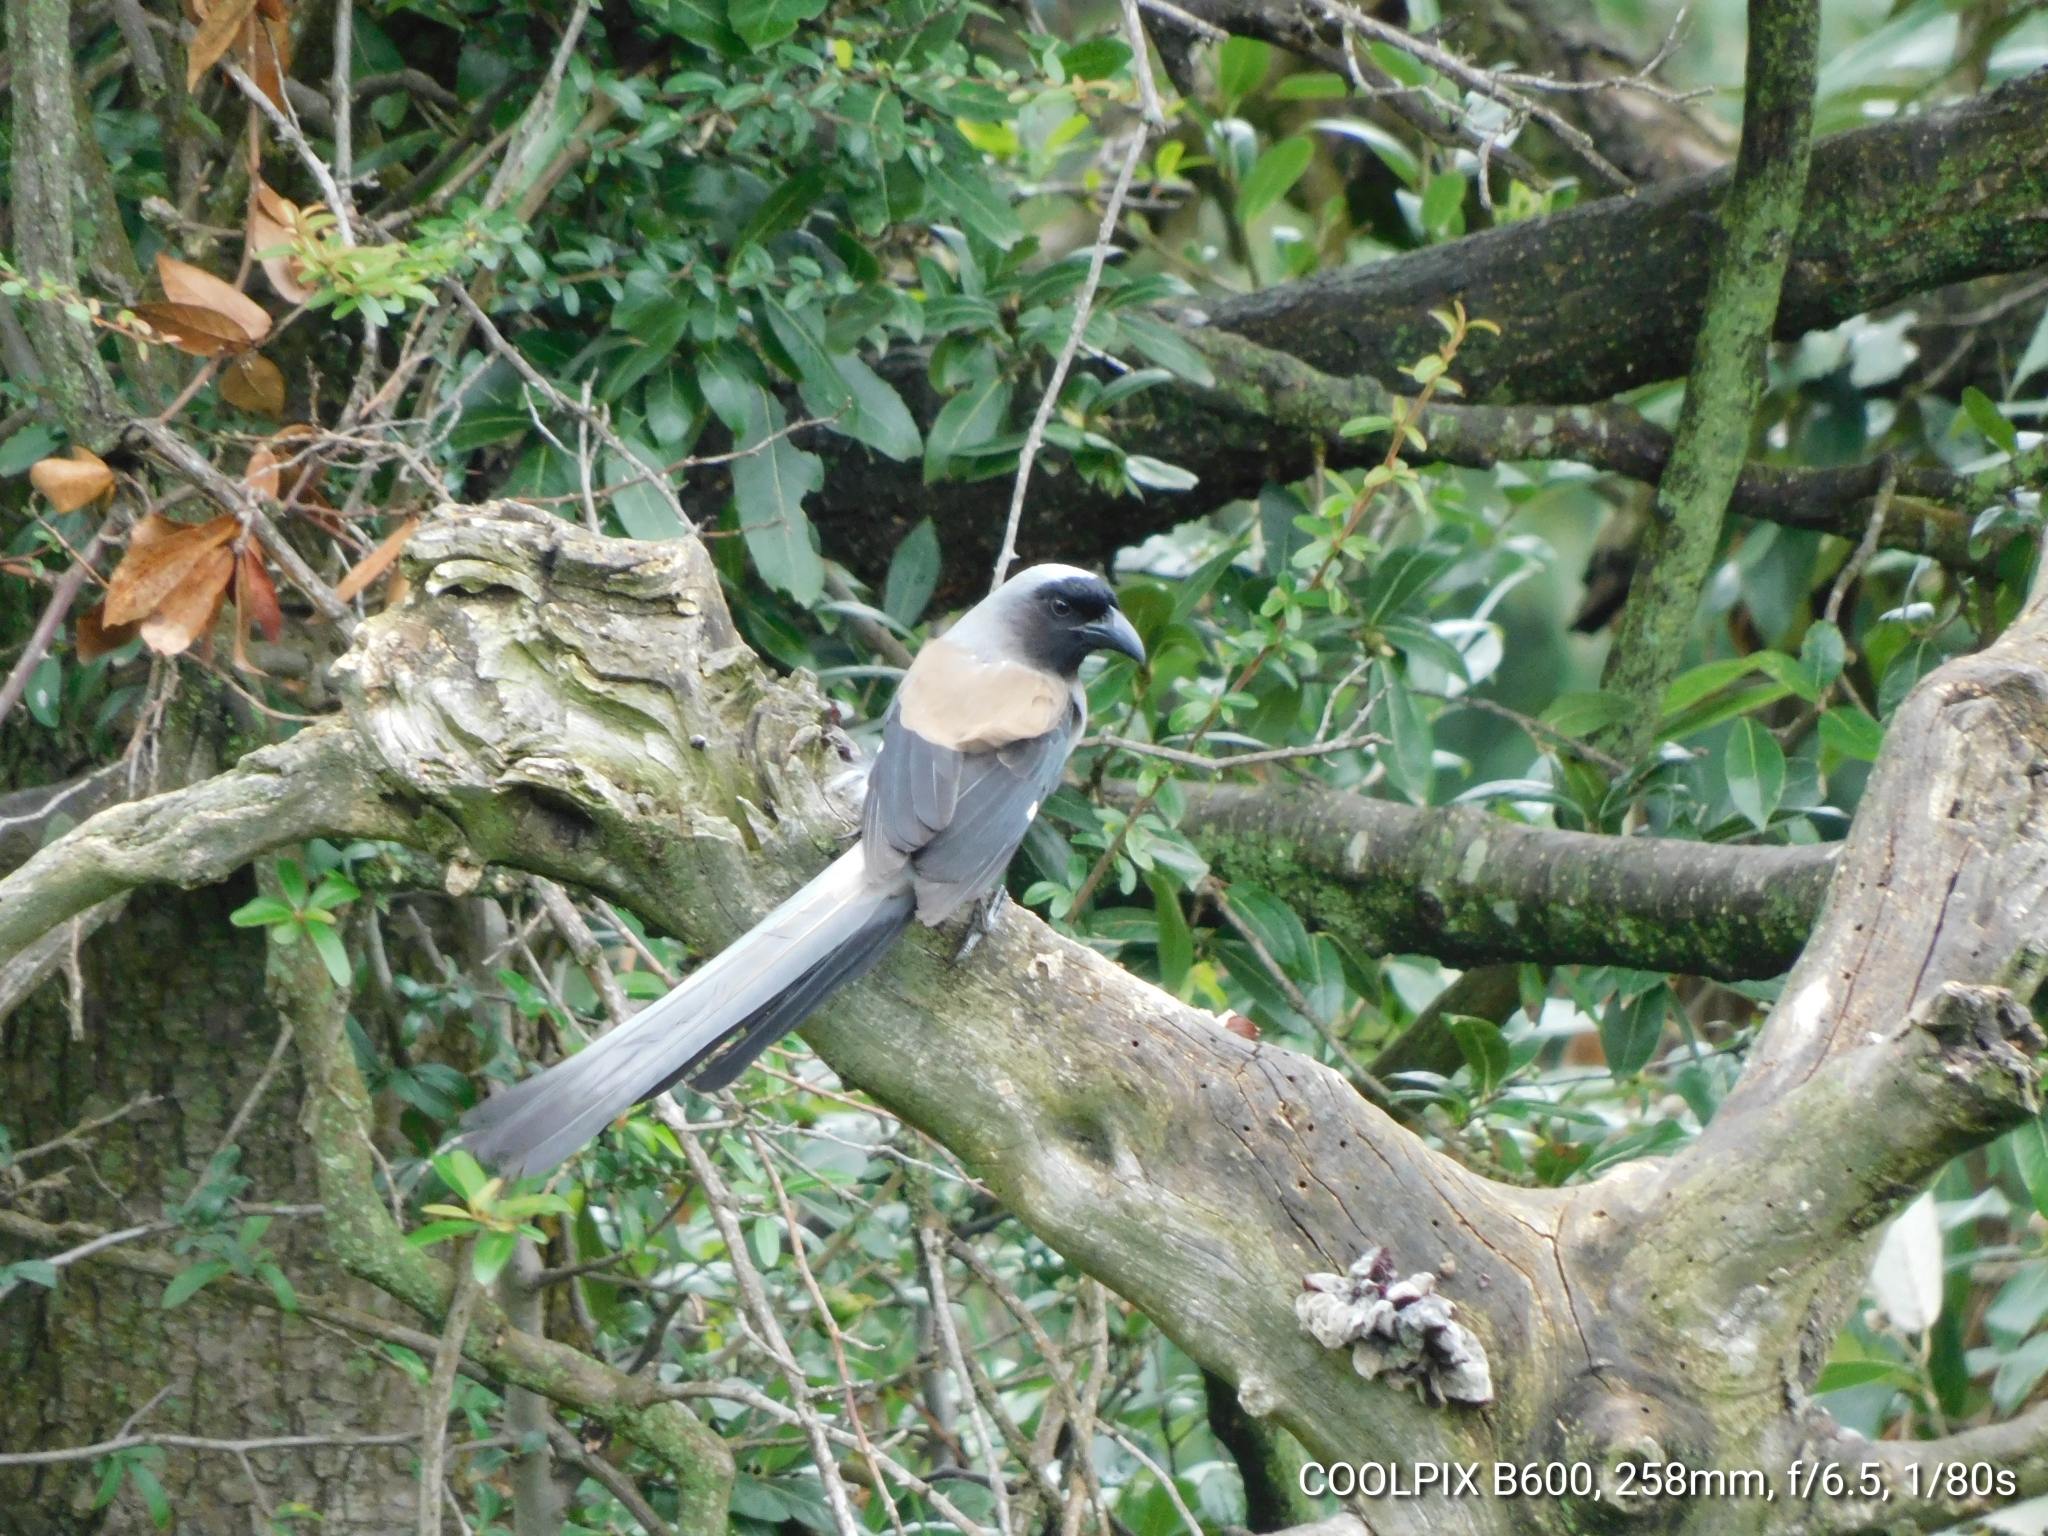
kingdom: Animalia
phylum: Chordata
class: Aves
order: Passeriformes
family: Corvidae
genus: Dendrocitta
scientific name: Dendrocitta formosae
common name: Grey treepie
